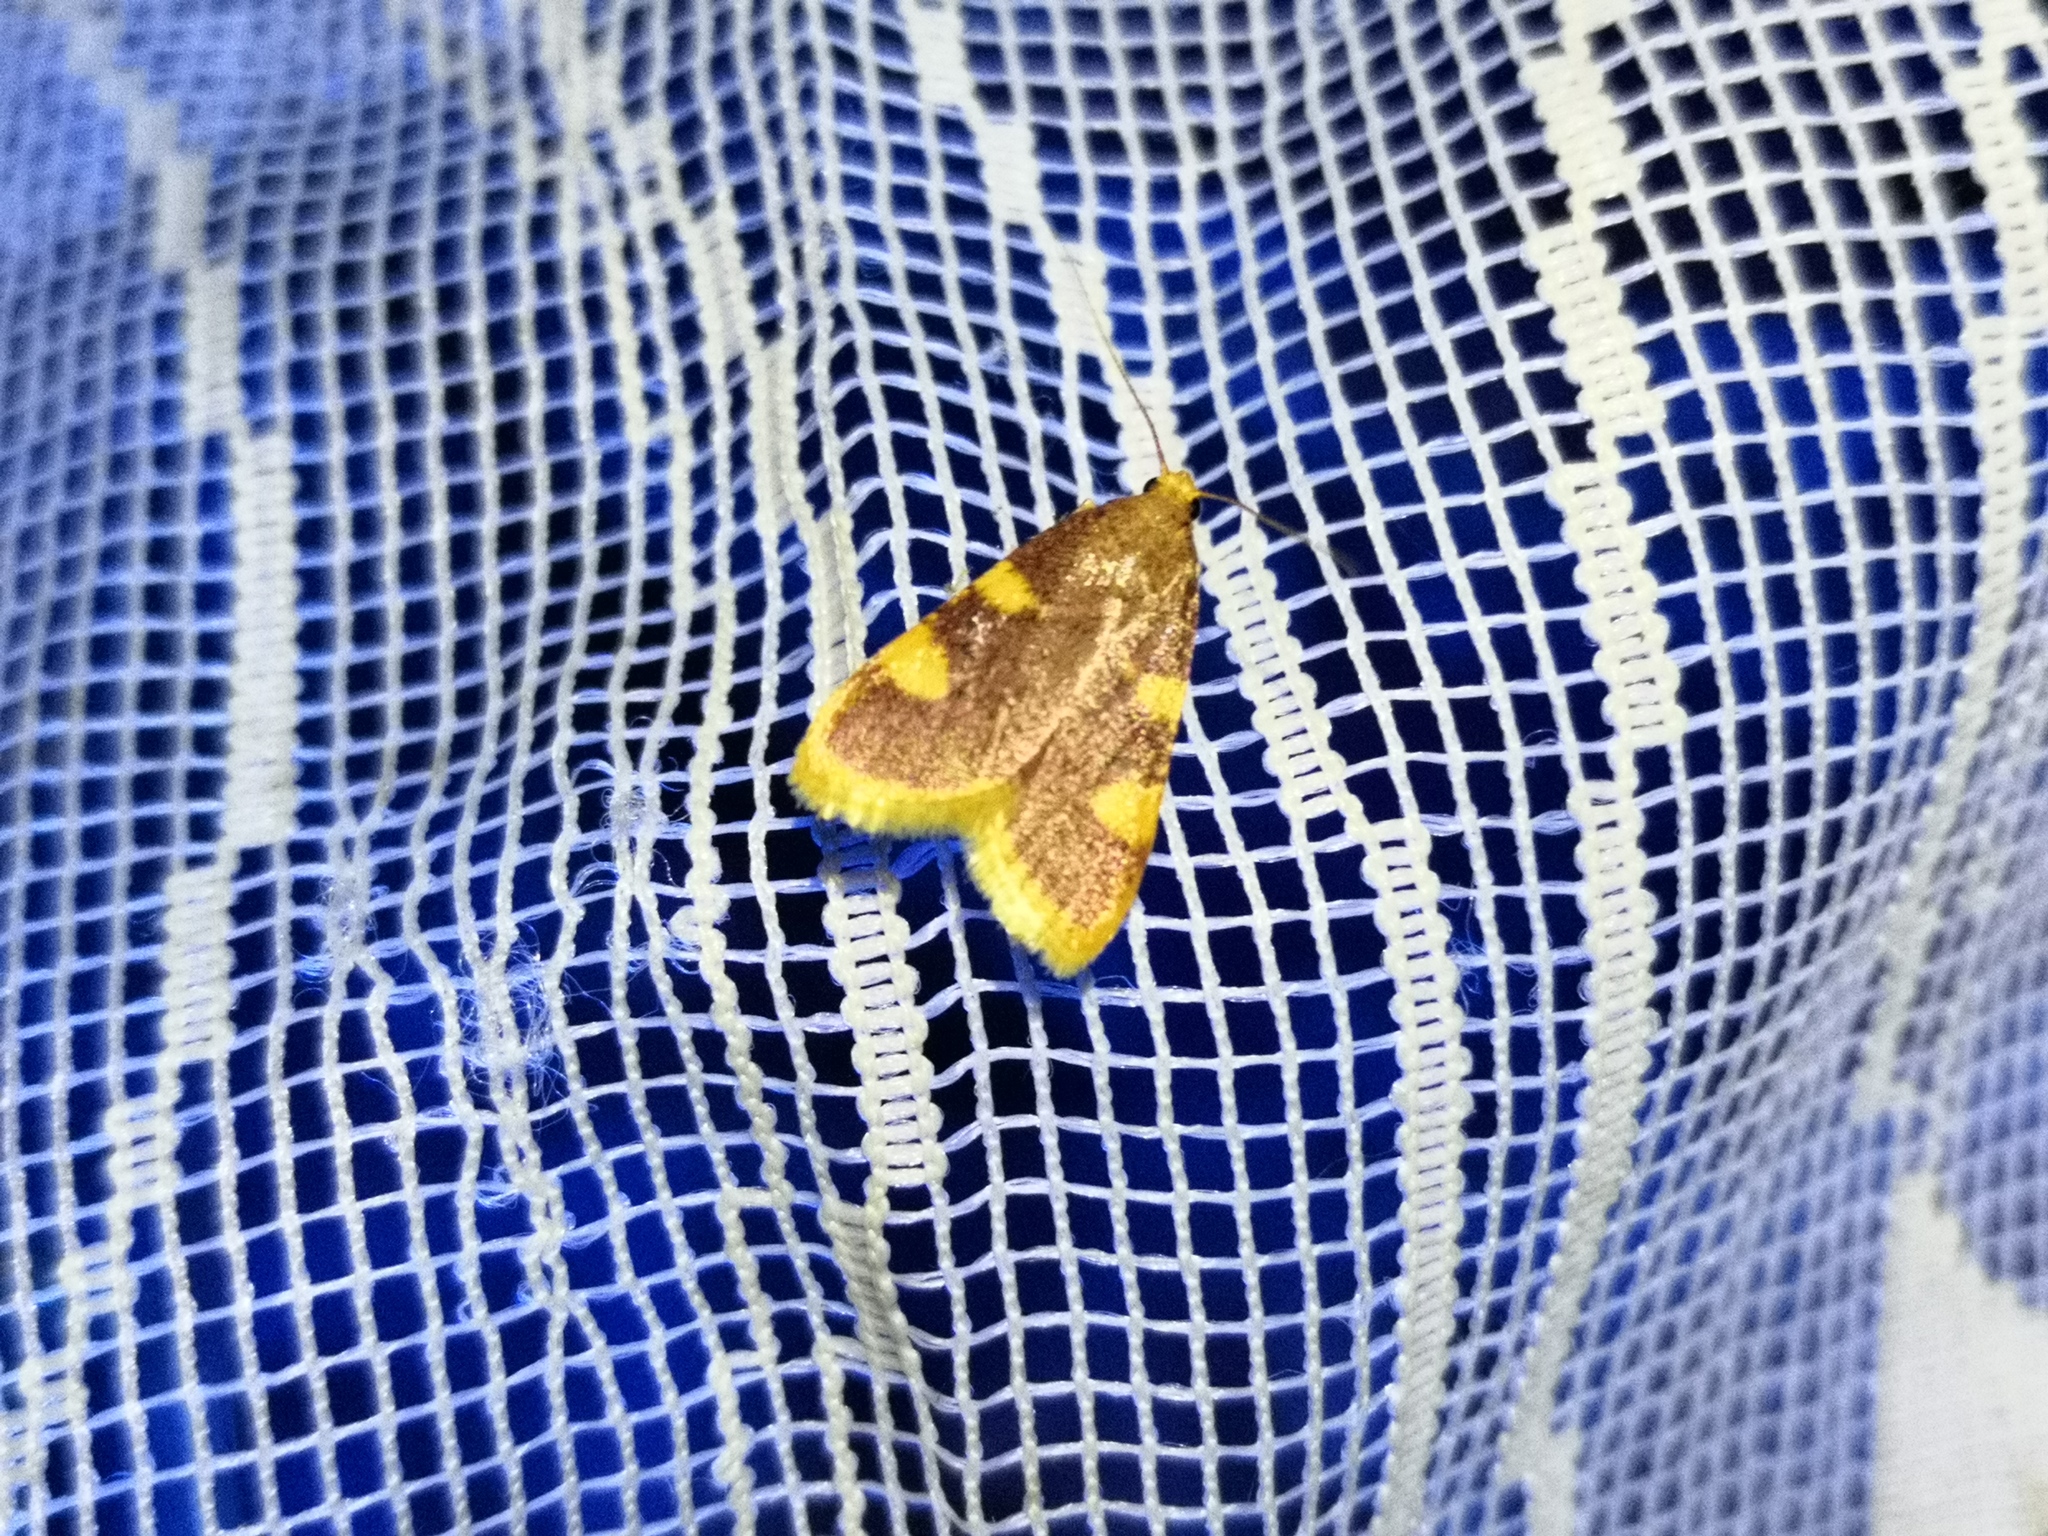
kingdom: Animalia
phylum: Arthropoda
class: Insecta
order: Lepidoptera
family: Pyralidae
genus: Hypsopygia
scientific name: Hypsopygia costalis
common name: Gold triangle
